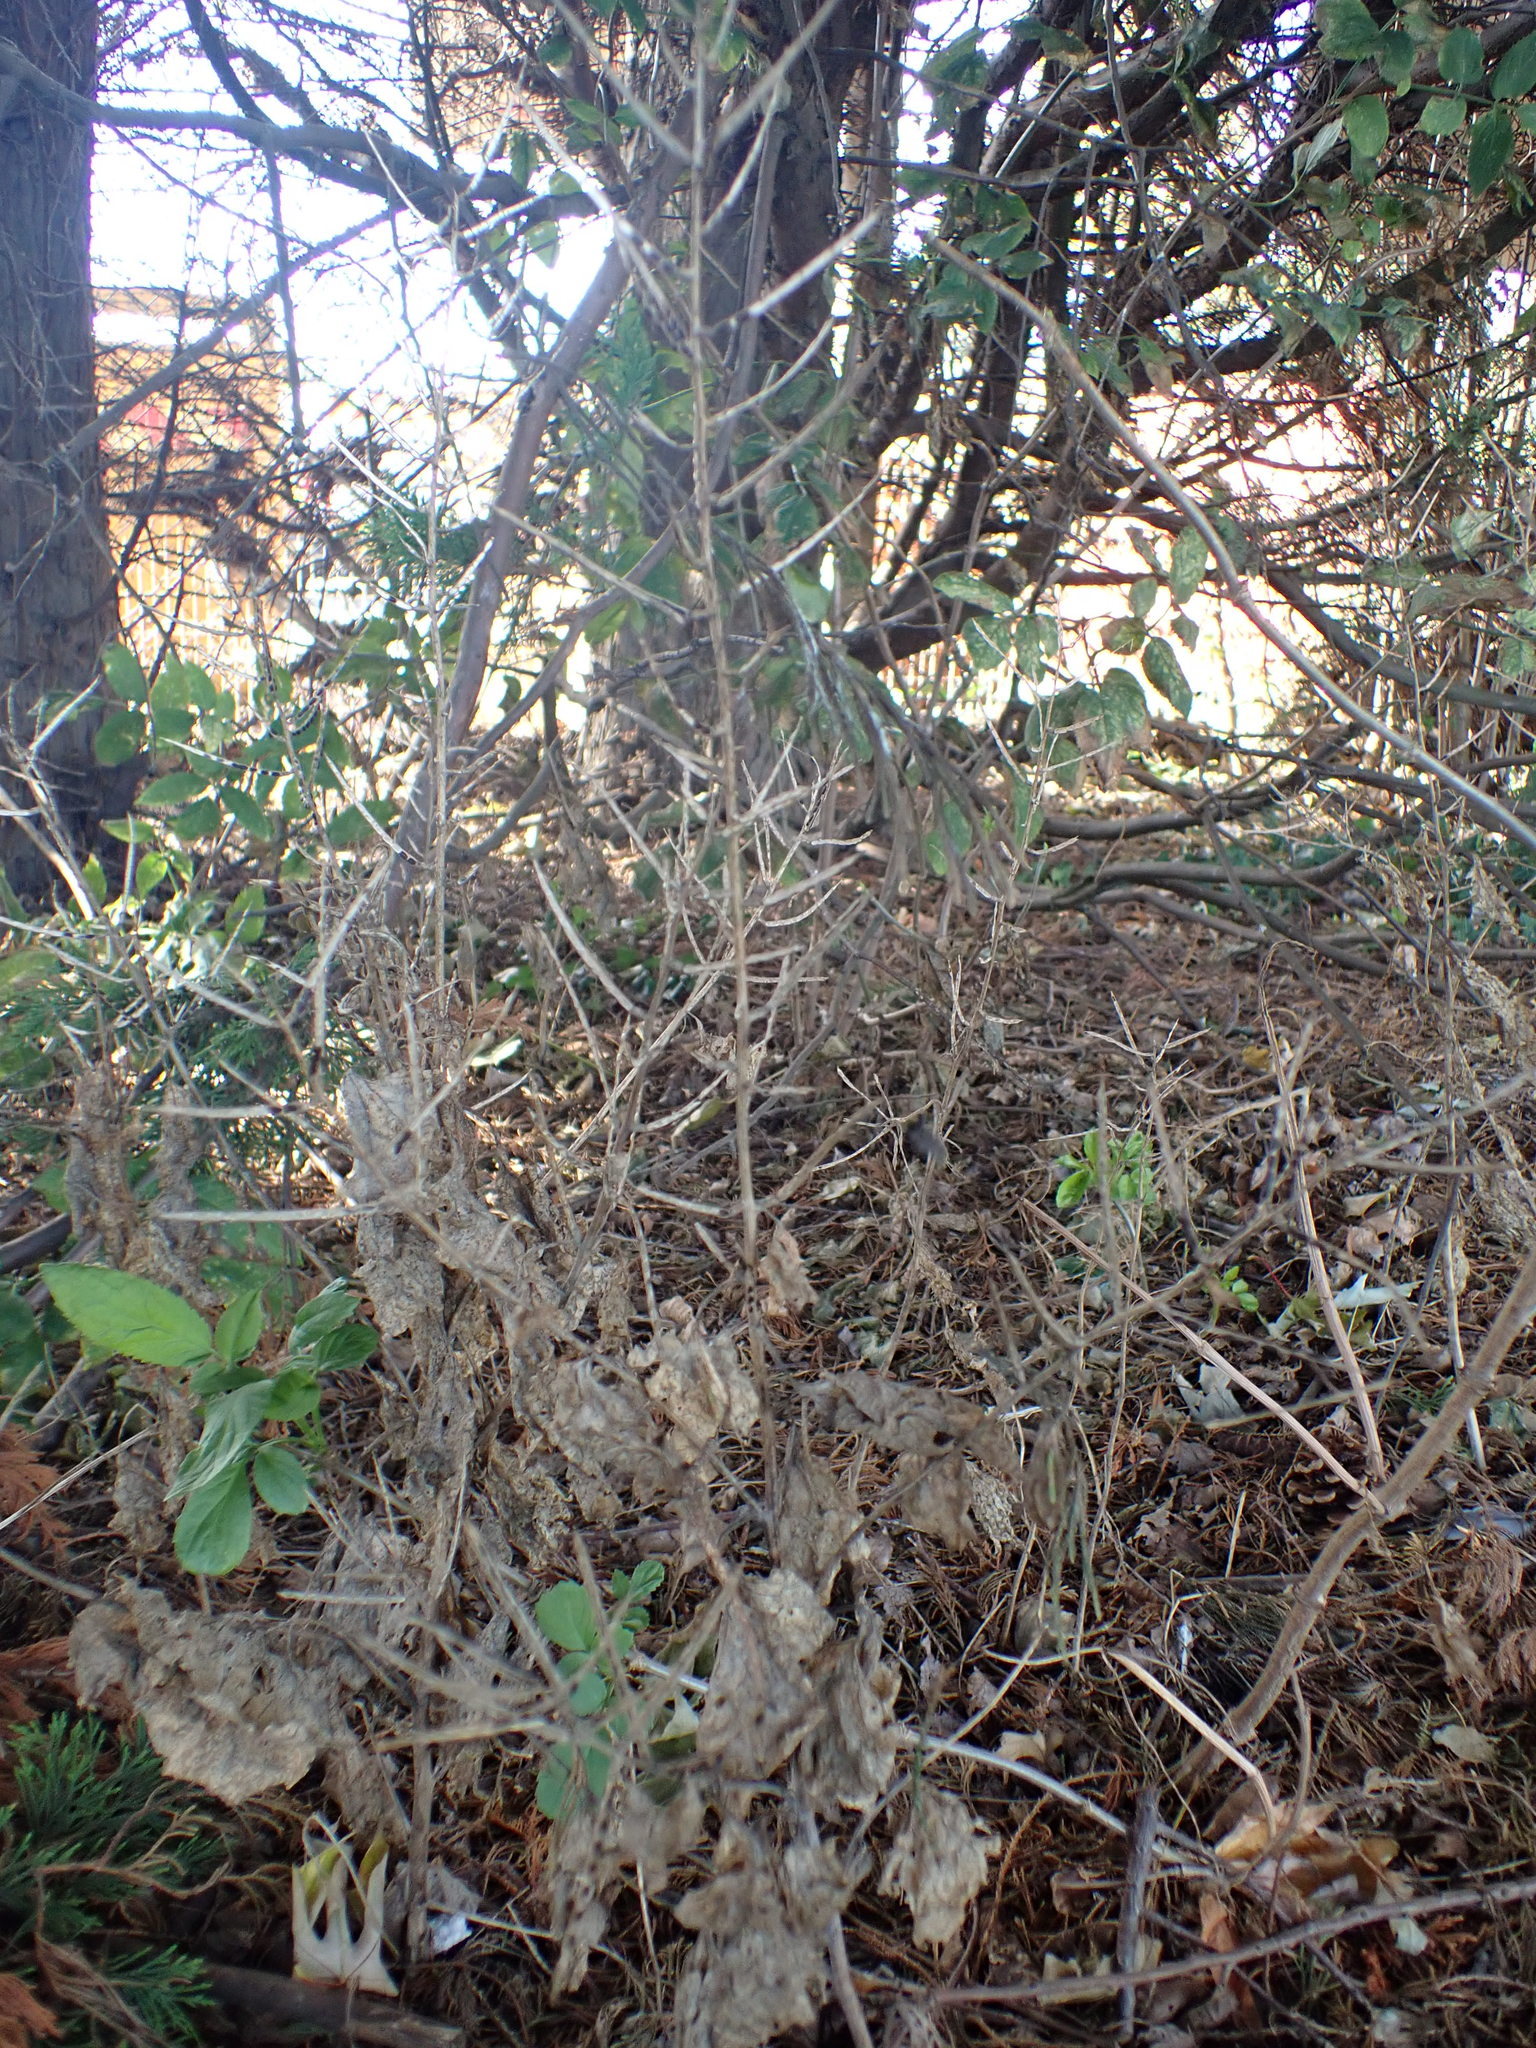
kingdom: Plantae
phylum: Tracheophyta
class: Magnoliopsida
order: Brassicales
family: Brassicaceae
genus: Alliaria
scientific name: Alliaria petiolata
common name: Garlic mustard
